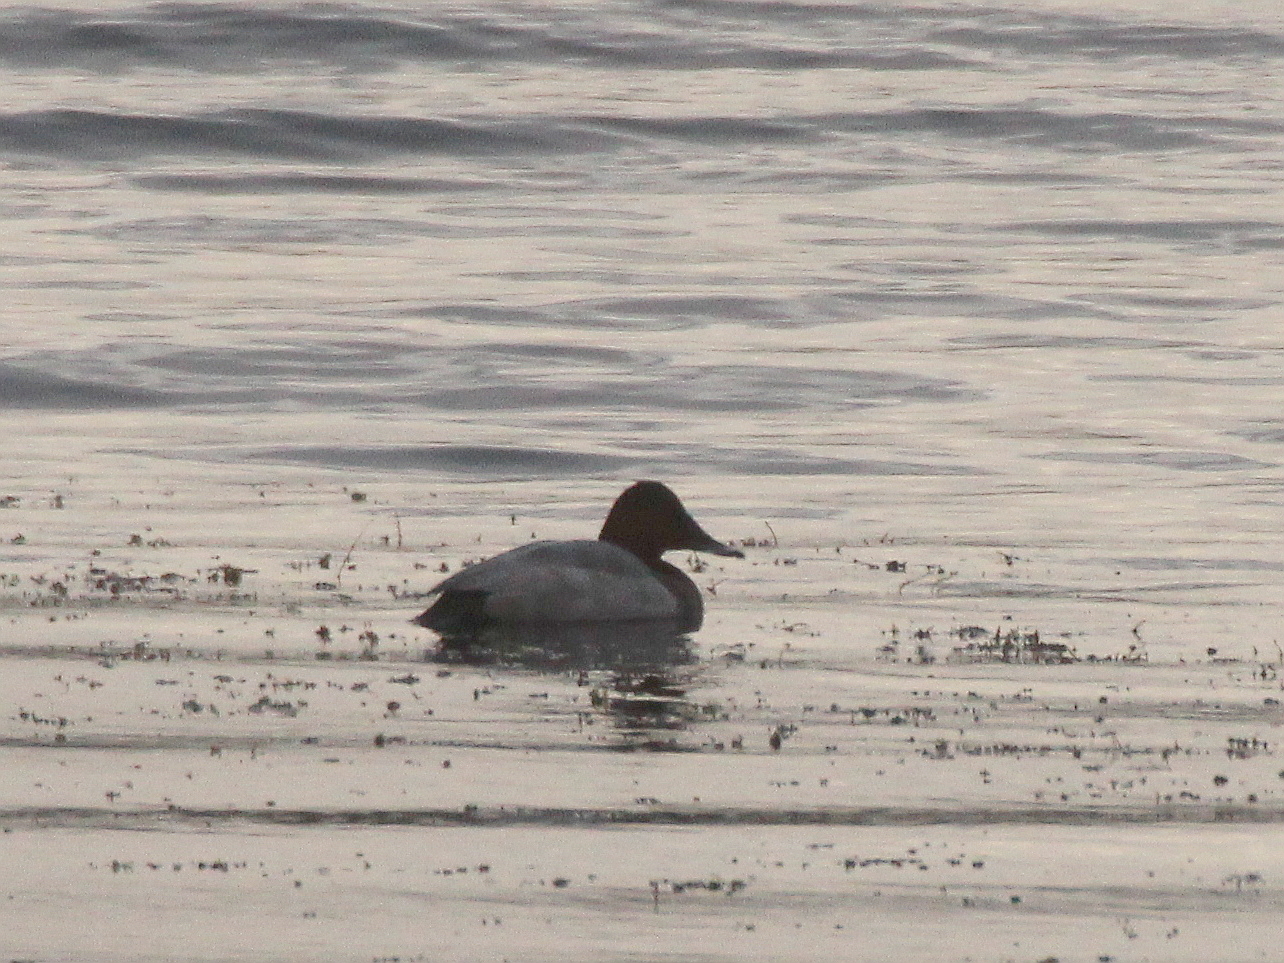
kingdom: Animalia
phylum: Chordata
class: Aves
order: Anseriformes
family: Anatidae
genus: Aythya
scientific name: Aythya ferina
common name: Common pochard
